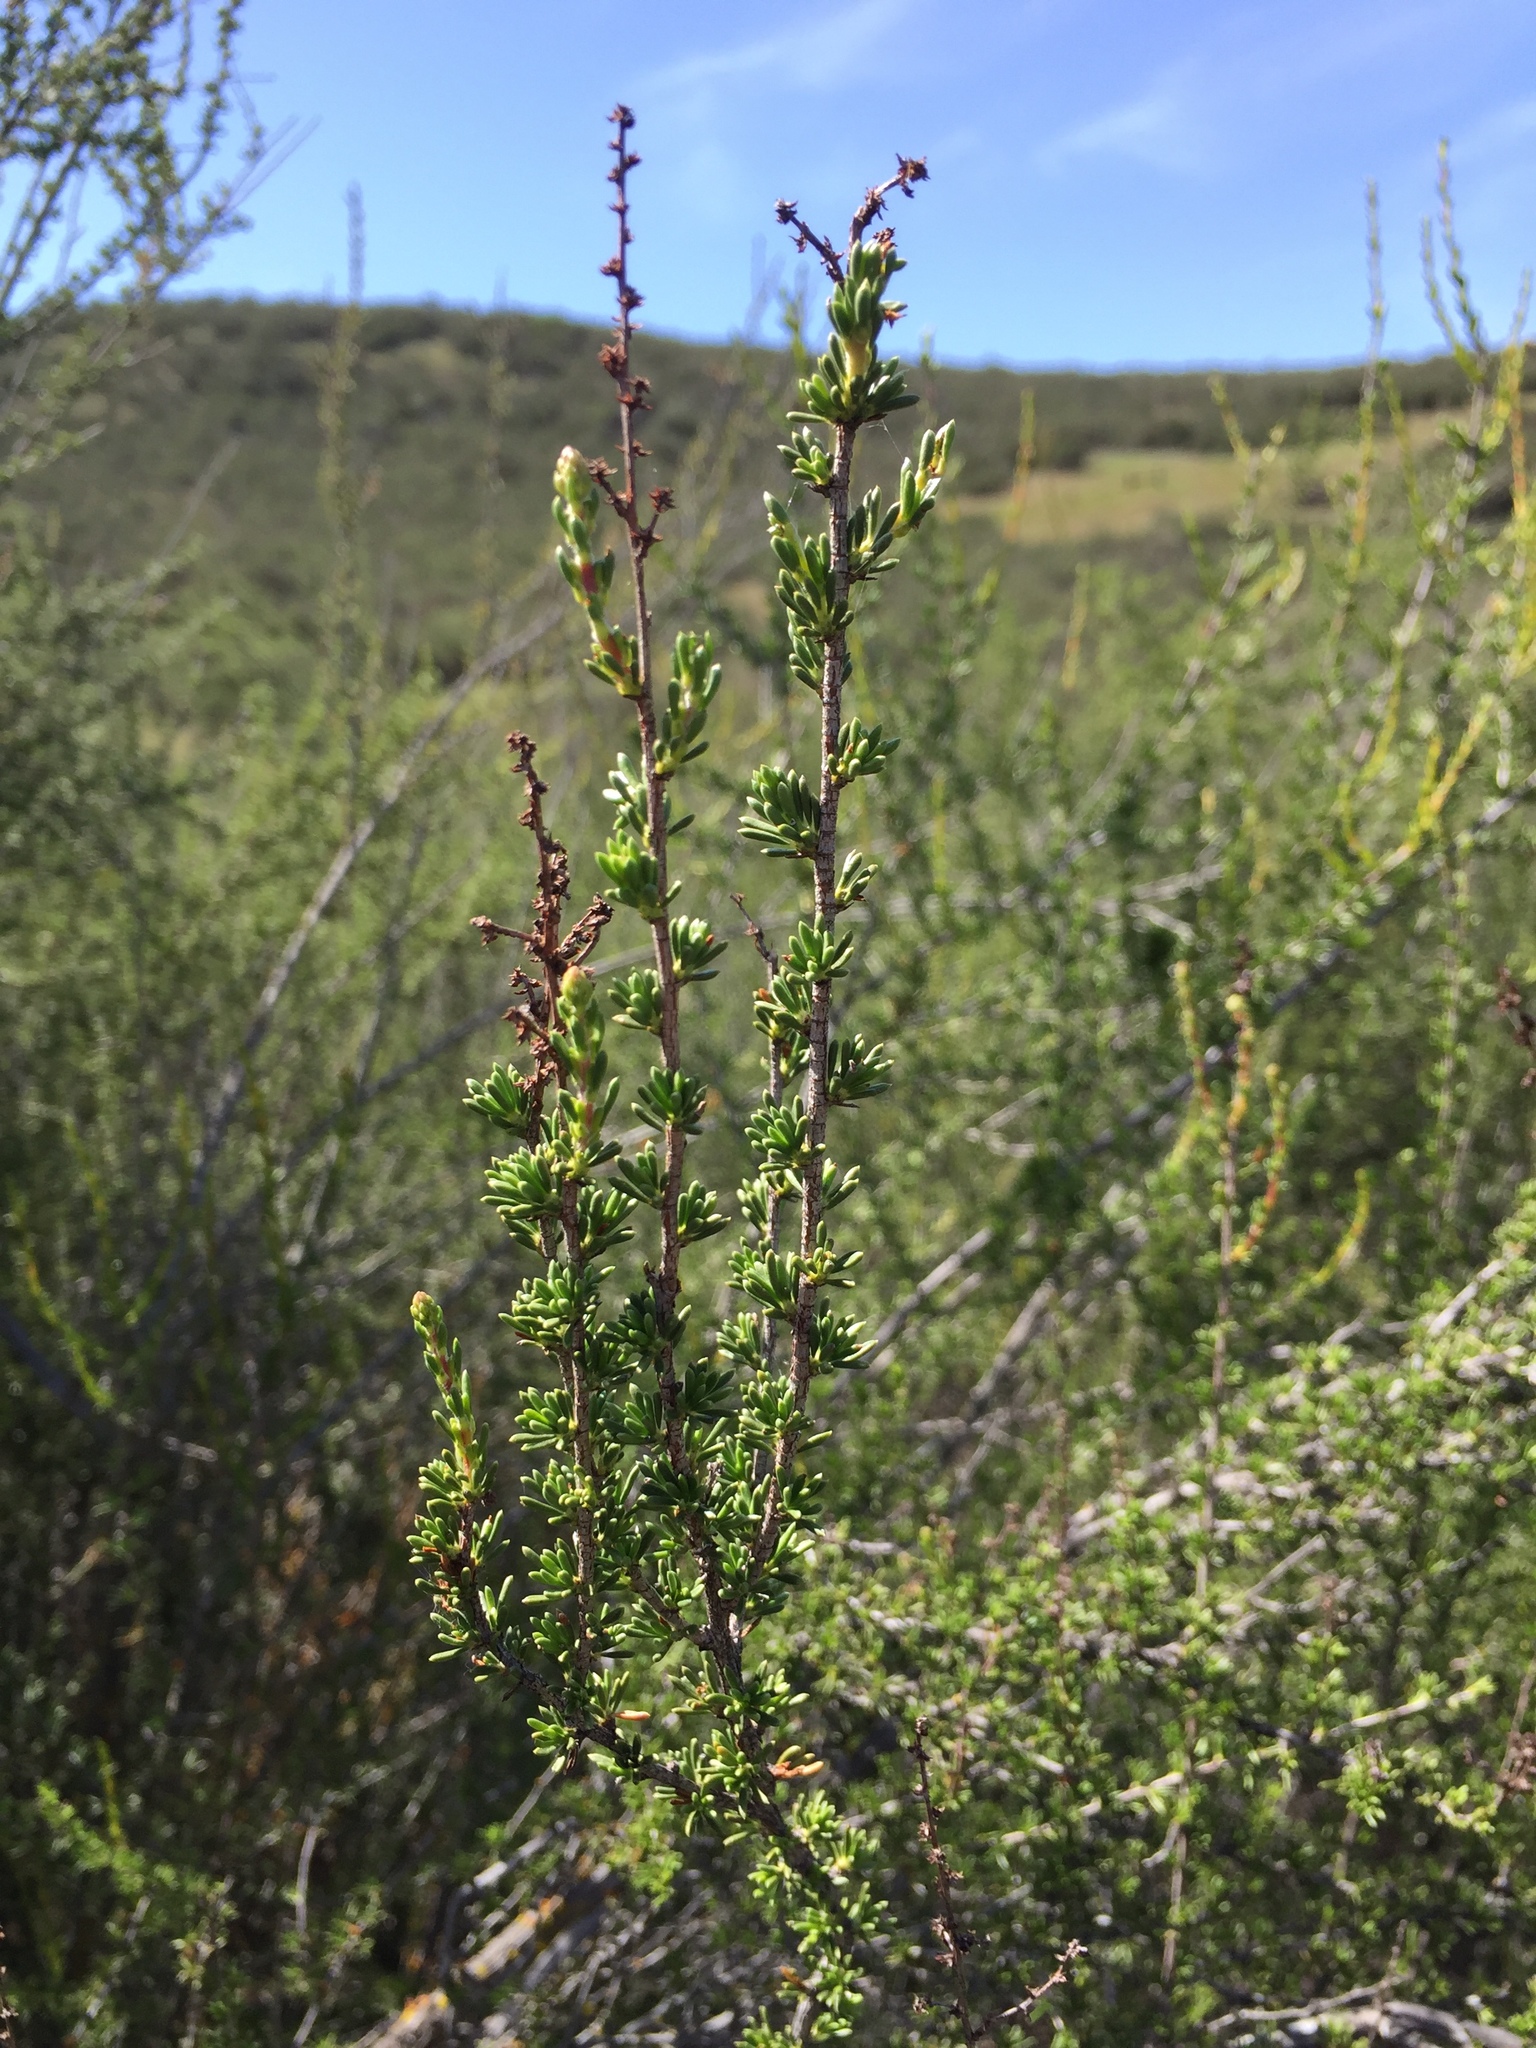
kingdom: Plantae
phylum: Tracheophyta
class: Magnoliopsida
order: Rosales
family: Rosaceae
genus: Adenostoma
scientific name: Adenostoma fasciculatum
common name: Chamise
